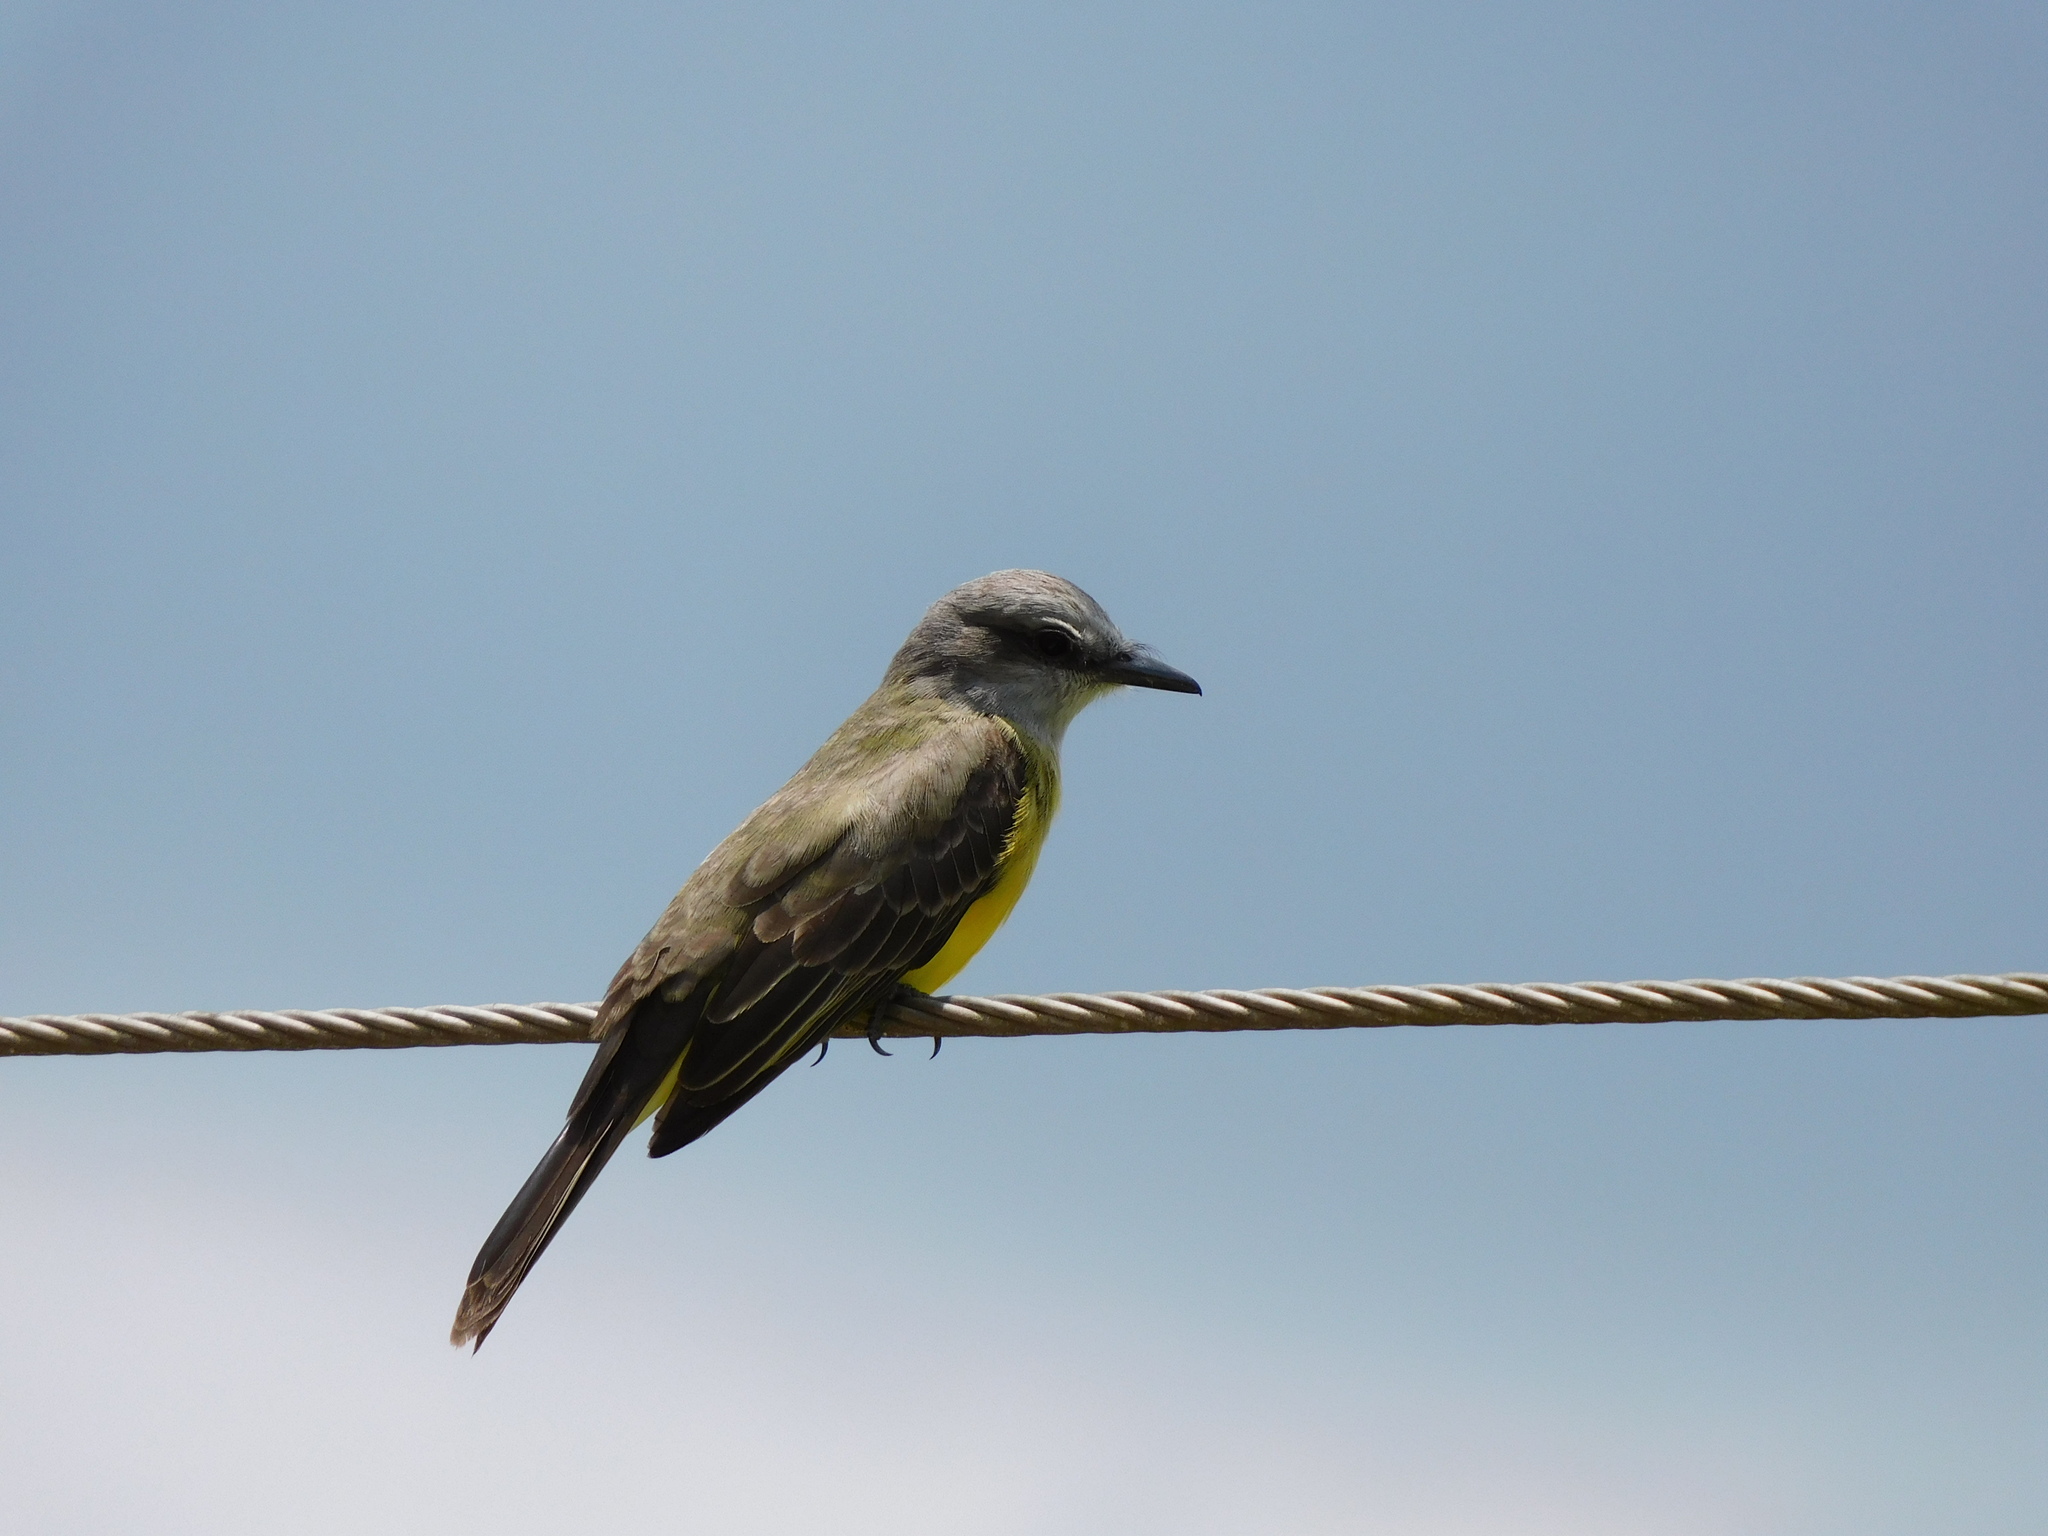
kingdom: Animalia
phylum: Chordata
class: Aves
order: Passeriformes
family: Tyrannidae
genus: Tyrannus
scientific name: Tyrannus melancholicus
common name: Tropical kingbird
